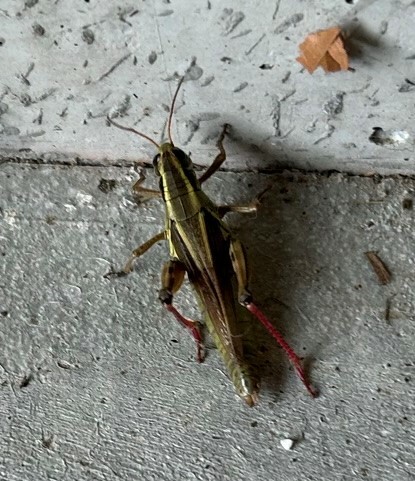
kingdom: Animalia
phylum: Arthropoda
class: Insecta
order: Orthoptera
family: Acrididae
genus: Melanoplus
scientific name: Melanoplus bivittatus
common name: Two-striped grasshopper
